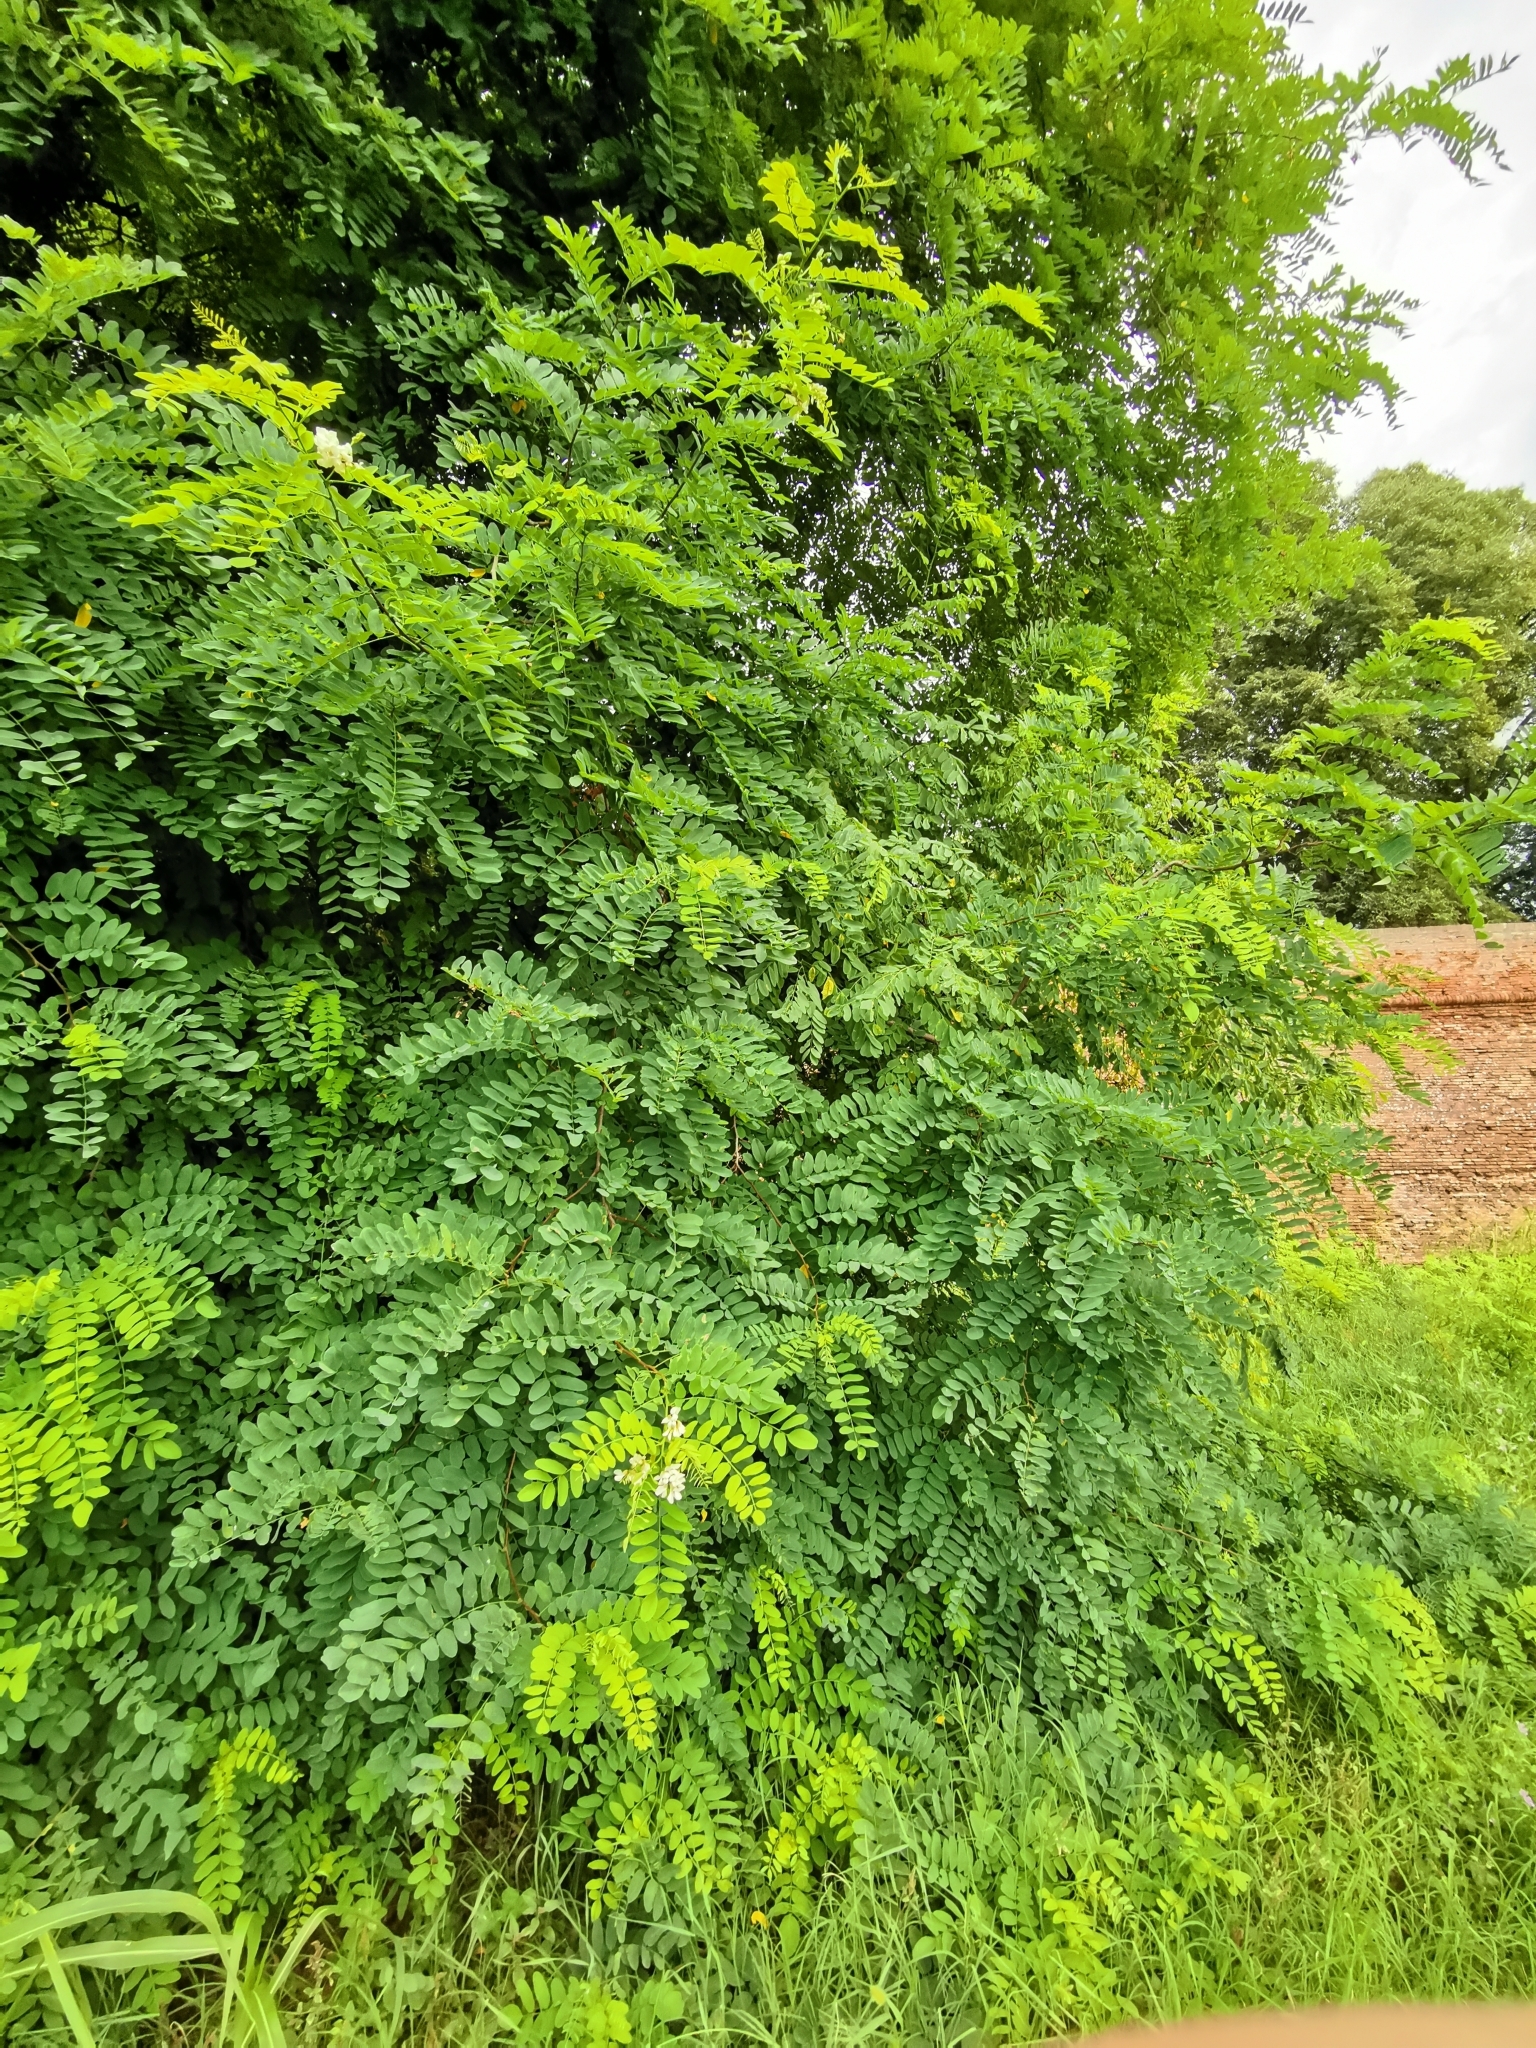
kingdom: Plantae
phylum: Tracheophyta
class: Magnoliopsida
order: Fabales
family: Fabaceae
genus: Robinia
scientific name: Robinia pseudoacacia
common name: Black locust
